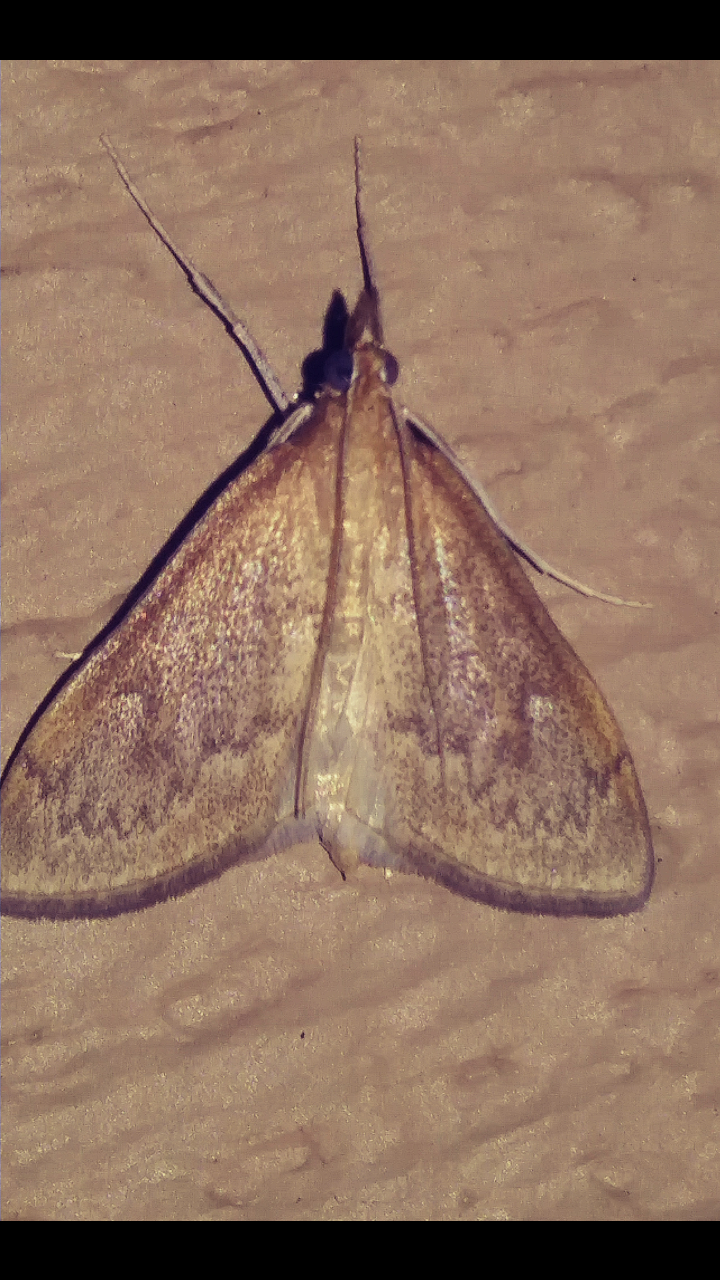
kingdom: Animalia
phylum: Arthropoda
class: Insecta
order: Lepidoptera
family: Crambidae
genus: Saucrobotys
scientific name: Saucrobotys futilalis
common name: Dogbane saucrobotys moth
